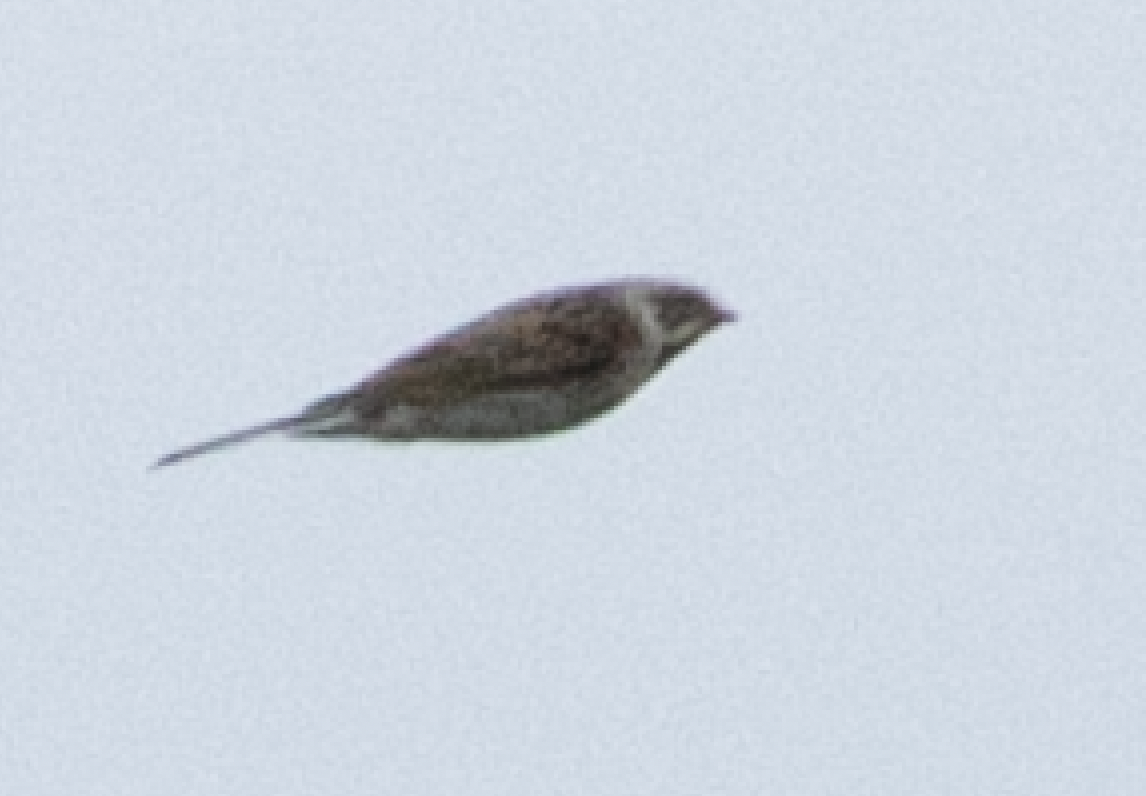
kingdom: Animalia
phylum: Chordata
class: Aves
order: Passeriformes
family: Emberizidae
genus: Emberiza
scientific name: Emberiza schoeniclus
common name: Reed bunting
